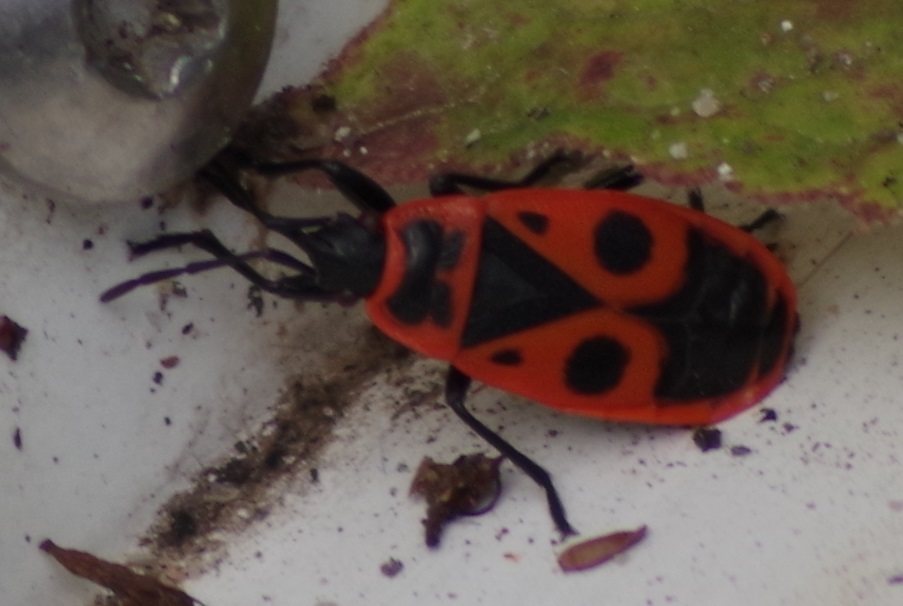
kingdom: Animalia
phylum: Arthropoda
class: Insecta
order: Hemiptera
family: Pyrrhocoridae
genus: Pyrrhocoris
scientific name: Pyrrhocoris apterus
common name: Firebug
